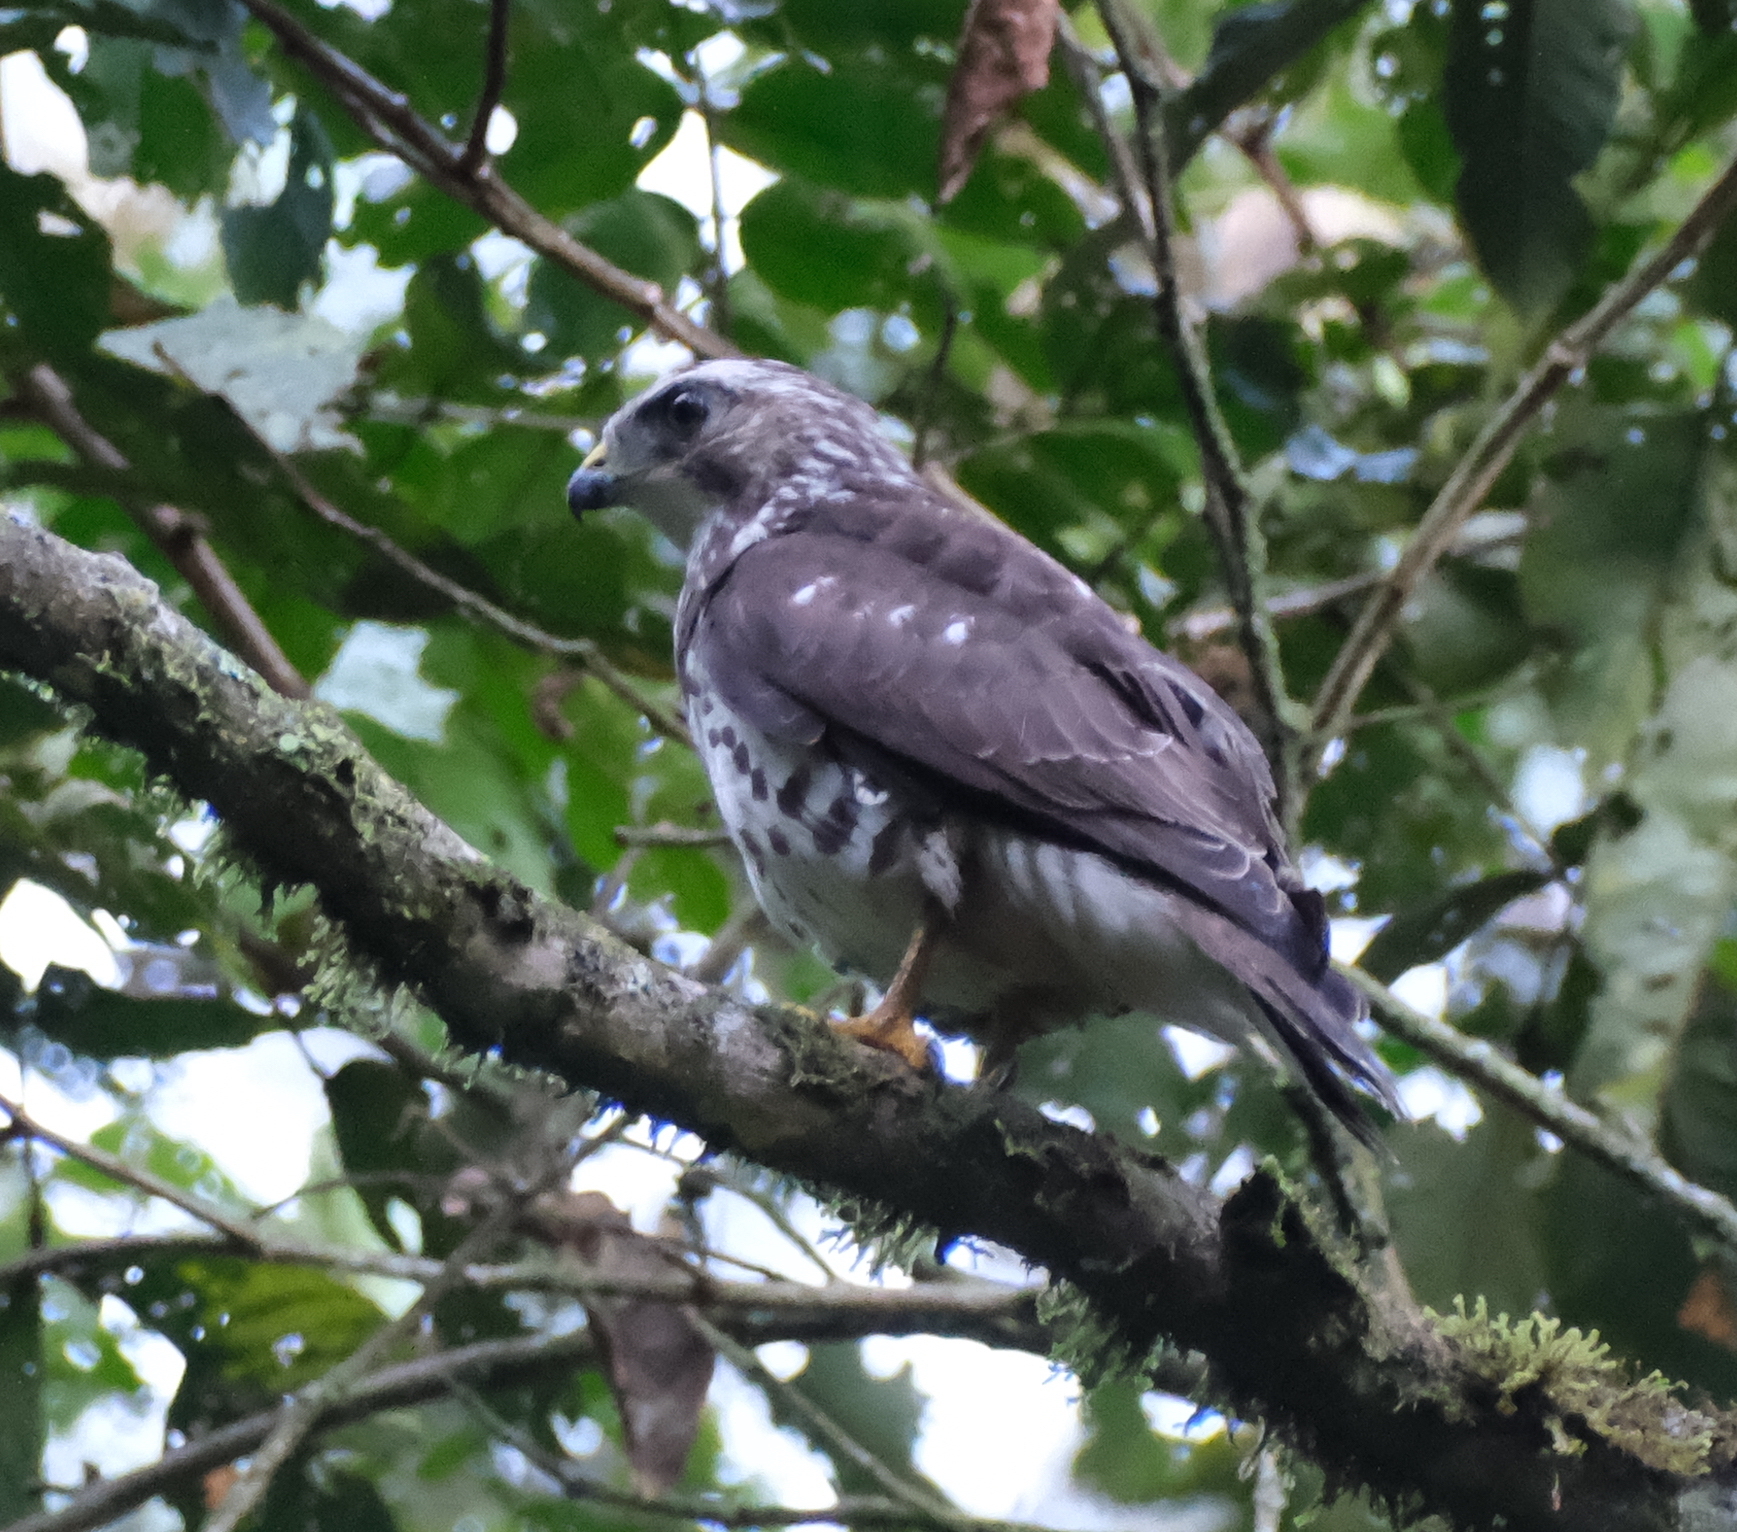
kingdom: Animalia
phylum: Chordata
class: Aves
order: Accipitriformes
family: Accipitridae
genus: Buteo
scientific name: Buteo platypterus
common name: Broad-winged hawk
